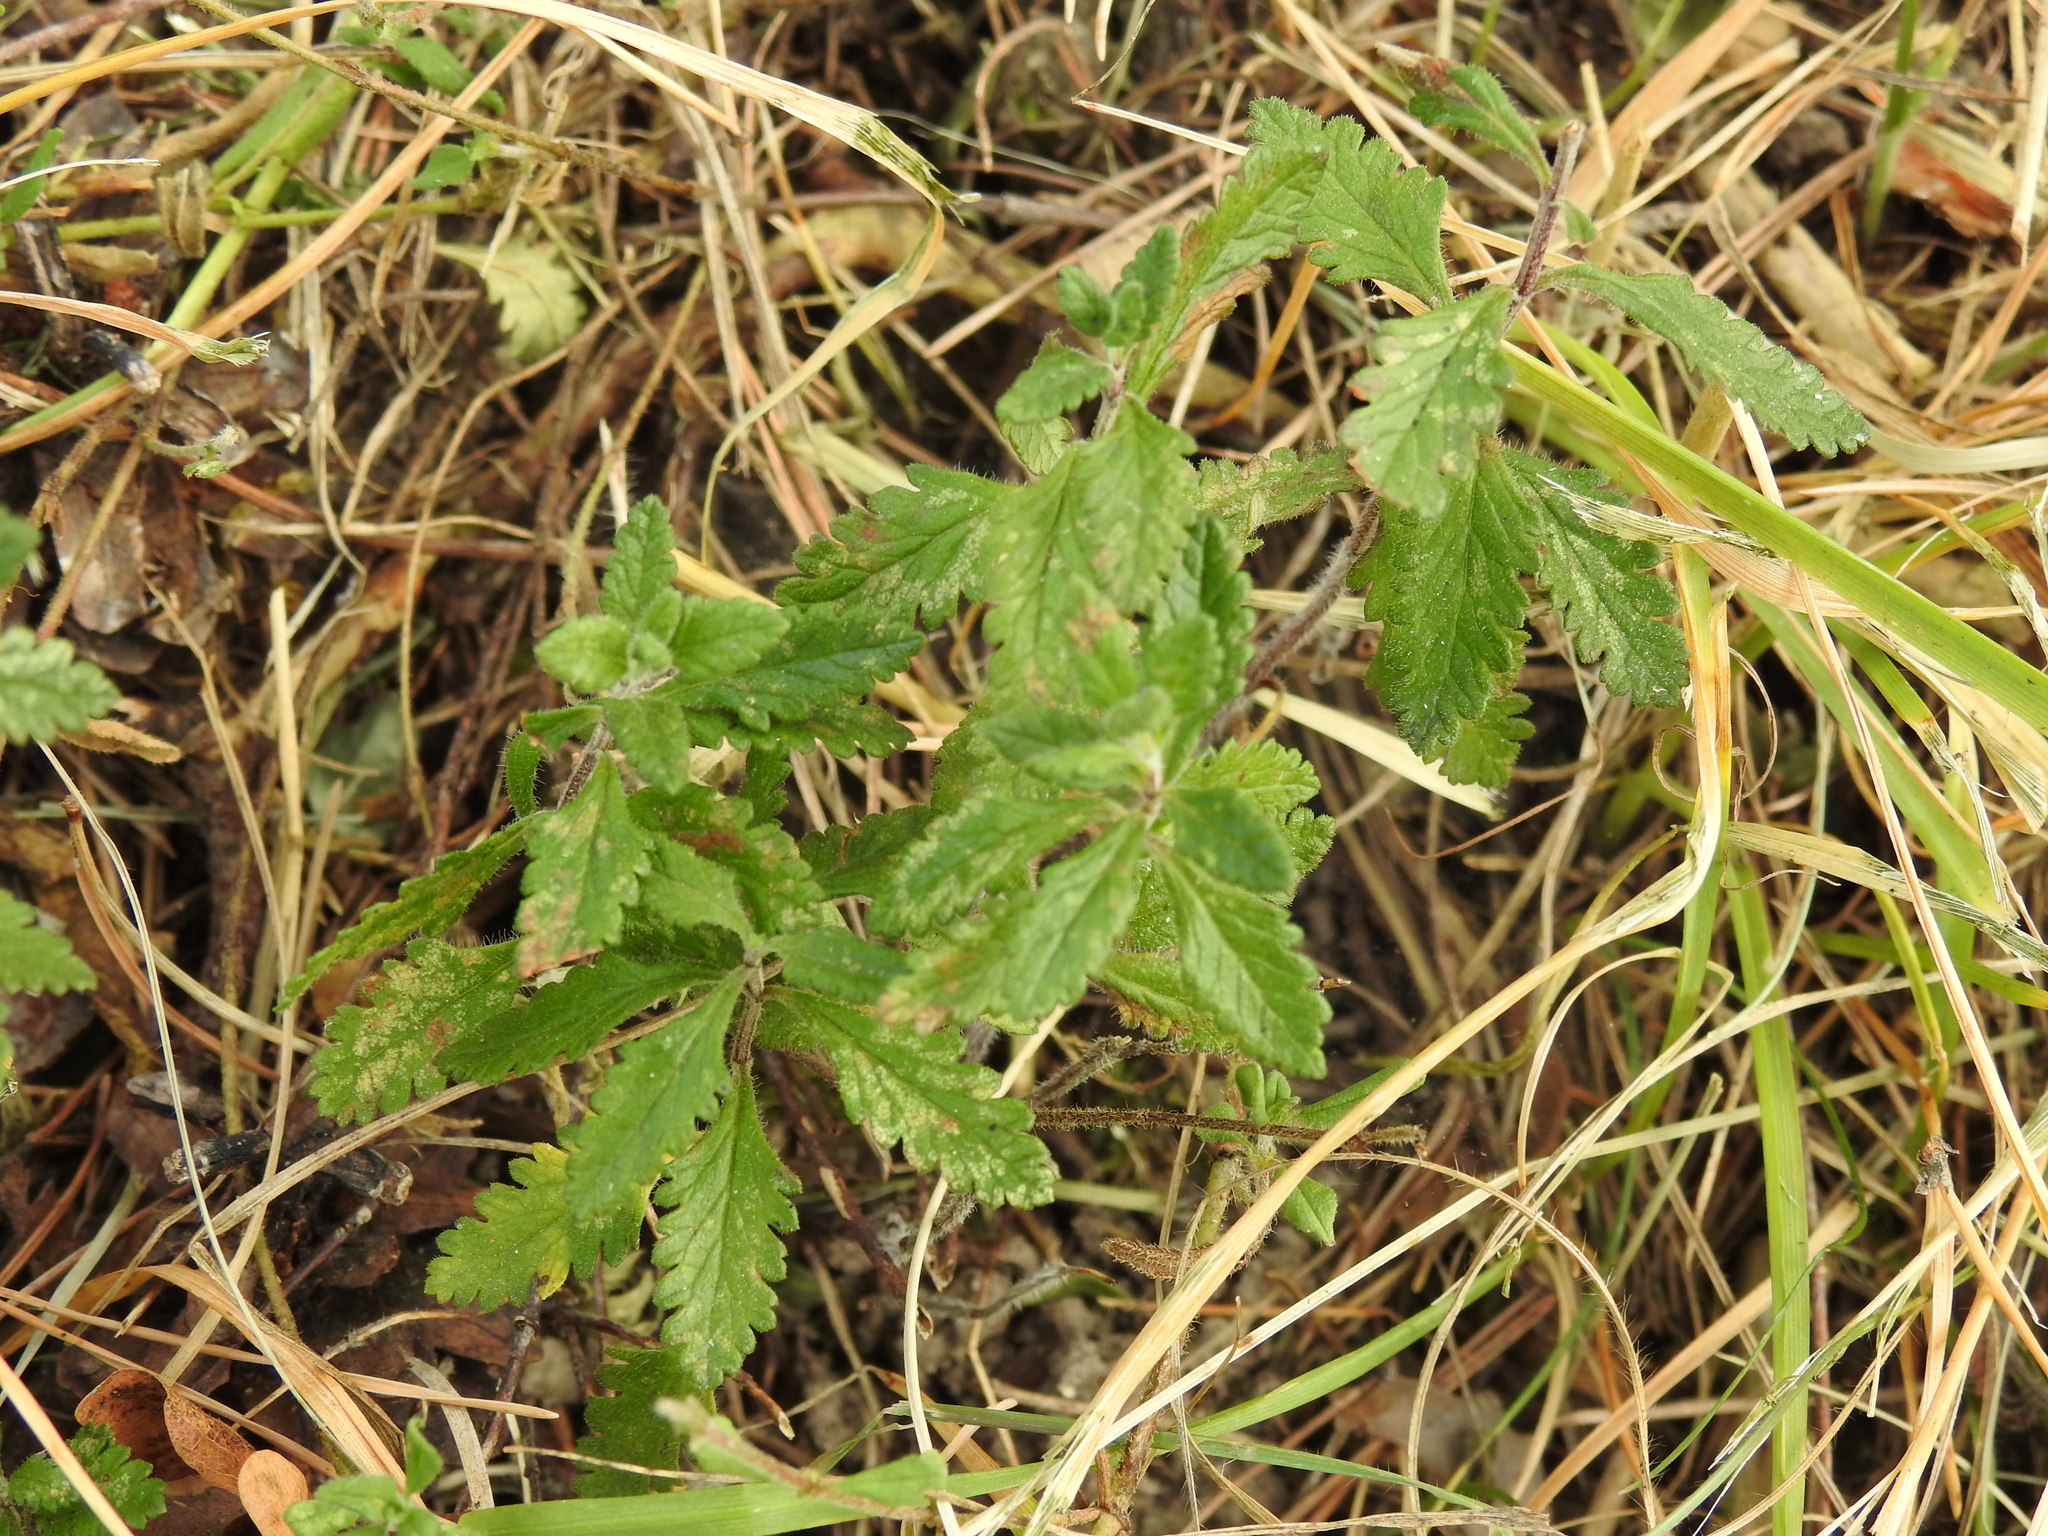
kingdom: Plantae
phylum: Tracheophyta
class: Magnoliopsida
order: Lamiales
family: Lamiaceae
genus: Teucrium
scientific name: Teucrium chamaedrys
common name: Wall germander
